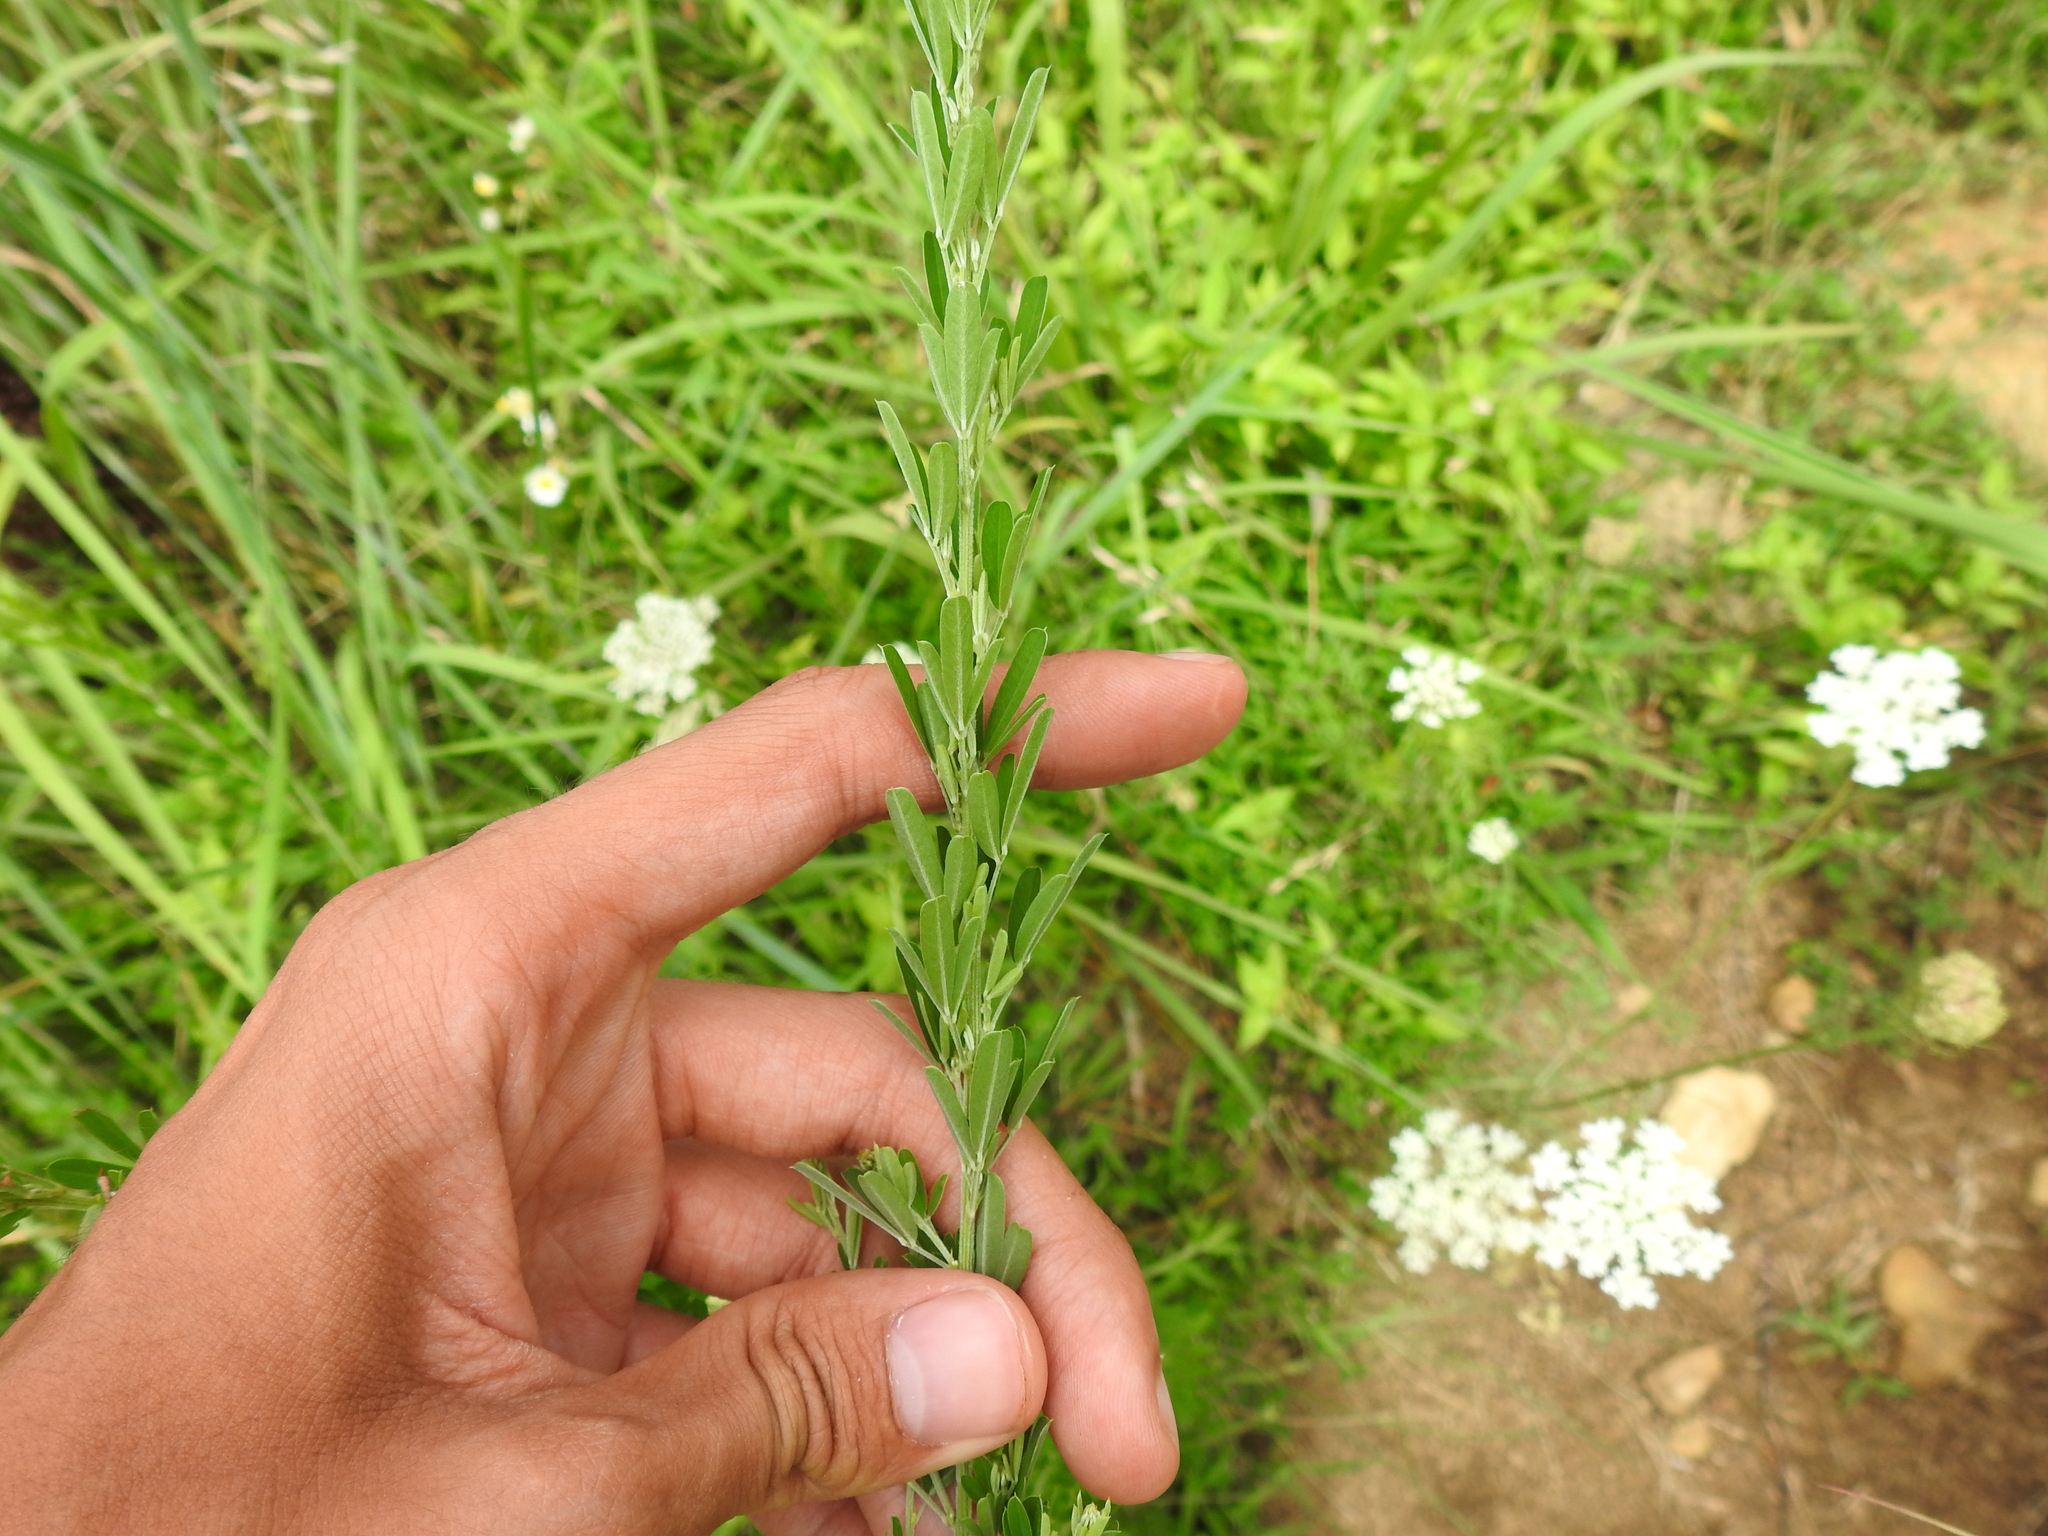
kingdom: Plantae
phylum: Tracheophyta
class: Magnoliopsida
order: Fabales
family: Fabaceae
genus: Lespedeza
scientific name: Lespedeza cuneata
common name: Chinese bush-clover
